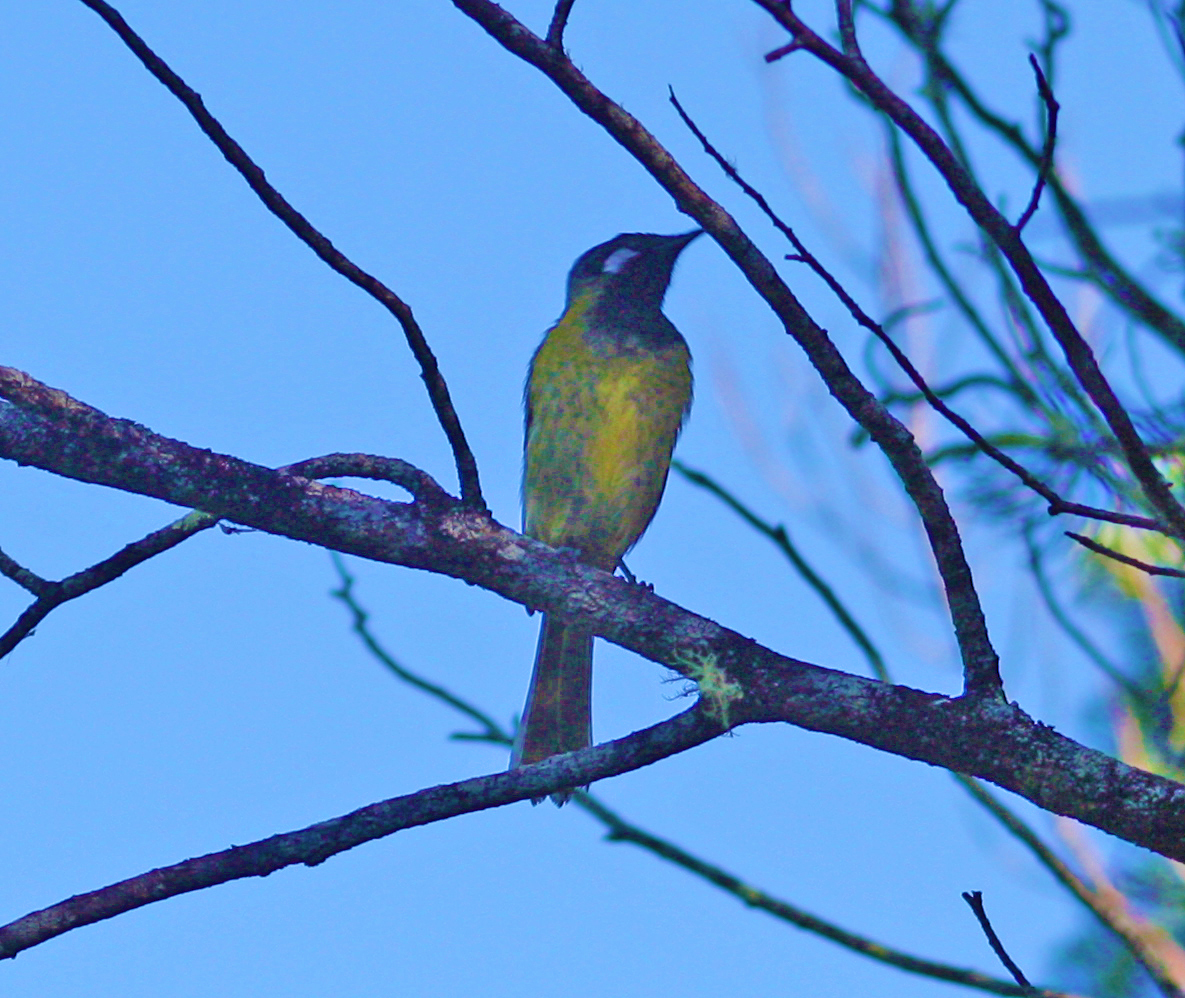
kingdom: Animalia
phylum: Chordata
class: Aves
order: Passeriformes
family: Meliphagidae
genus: Nesoptilotis
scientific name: Nesoptilotis leucotis
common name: White-eared honeyeater
